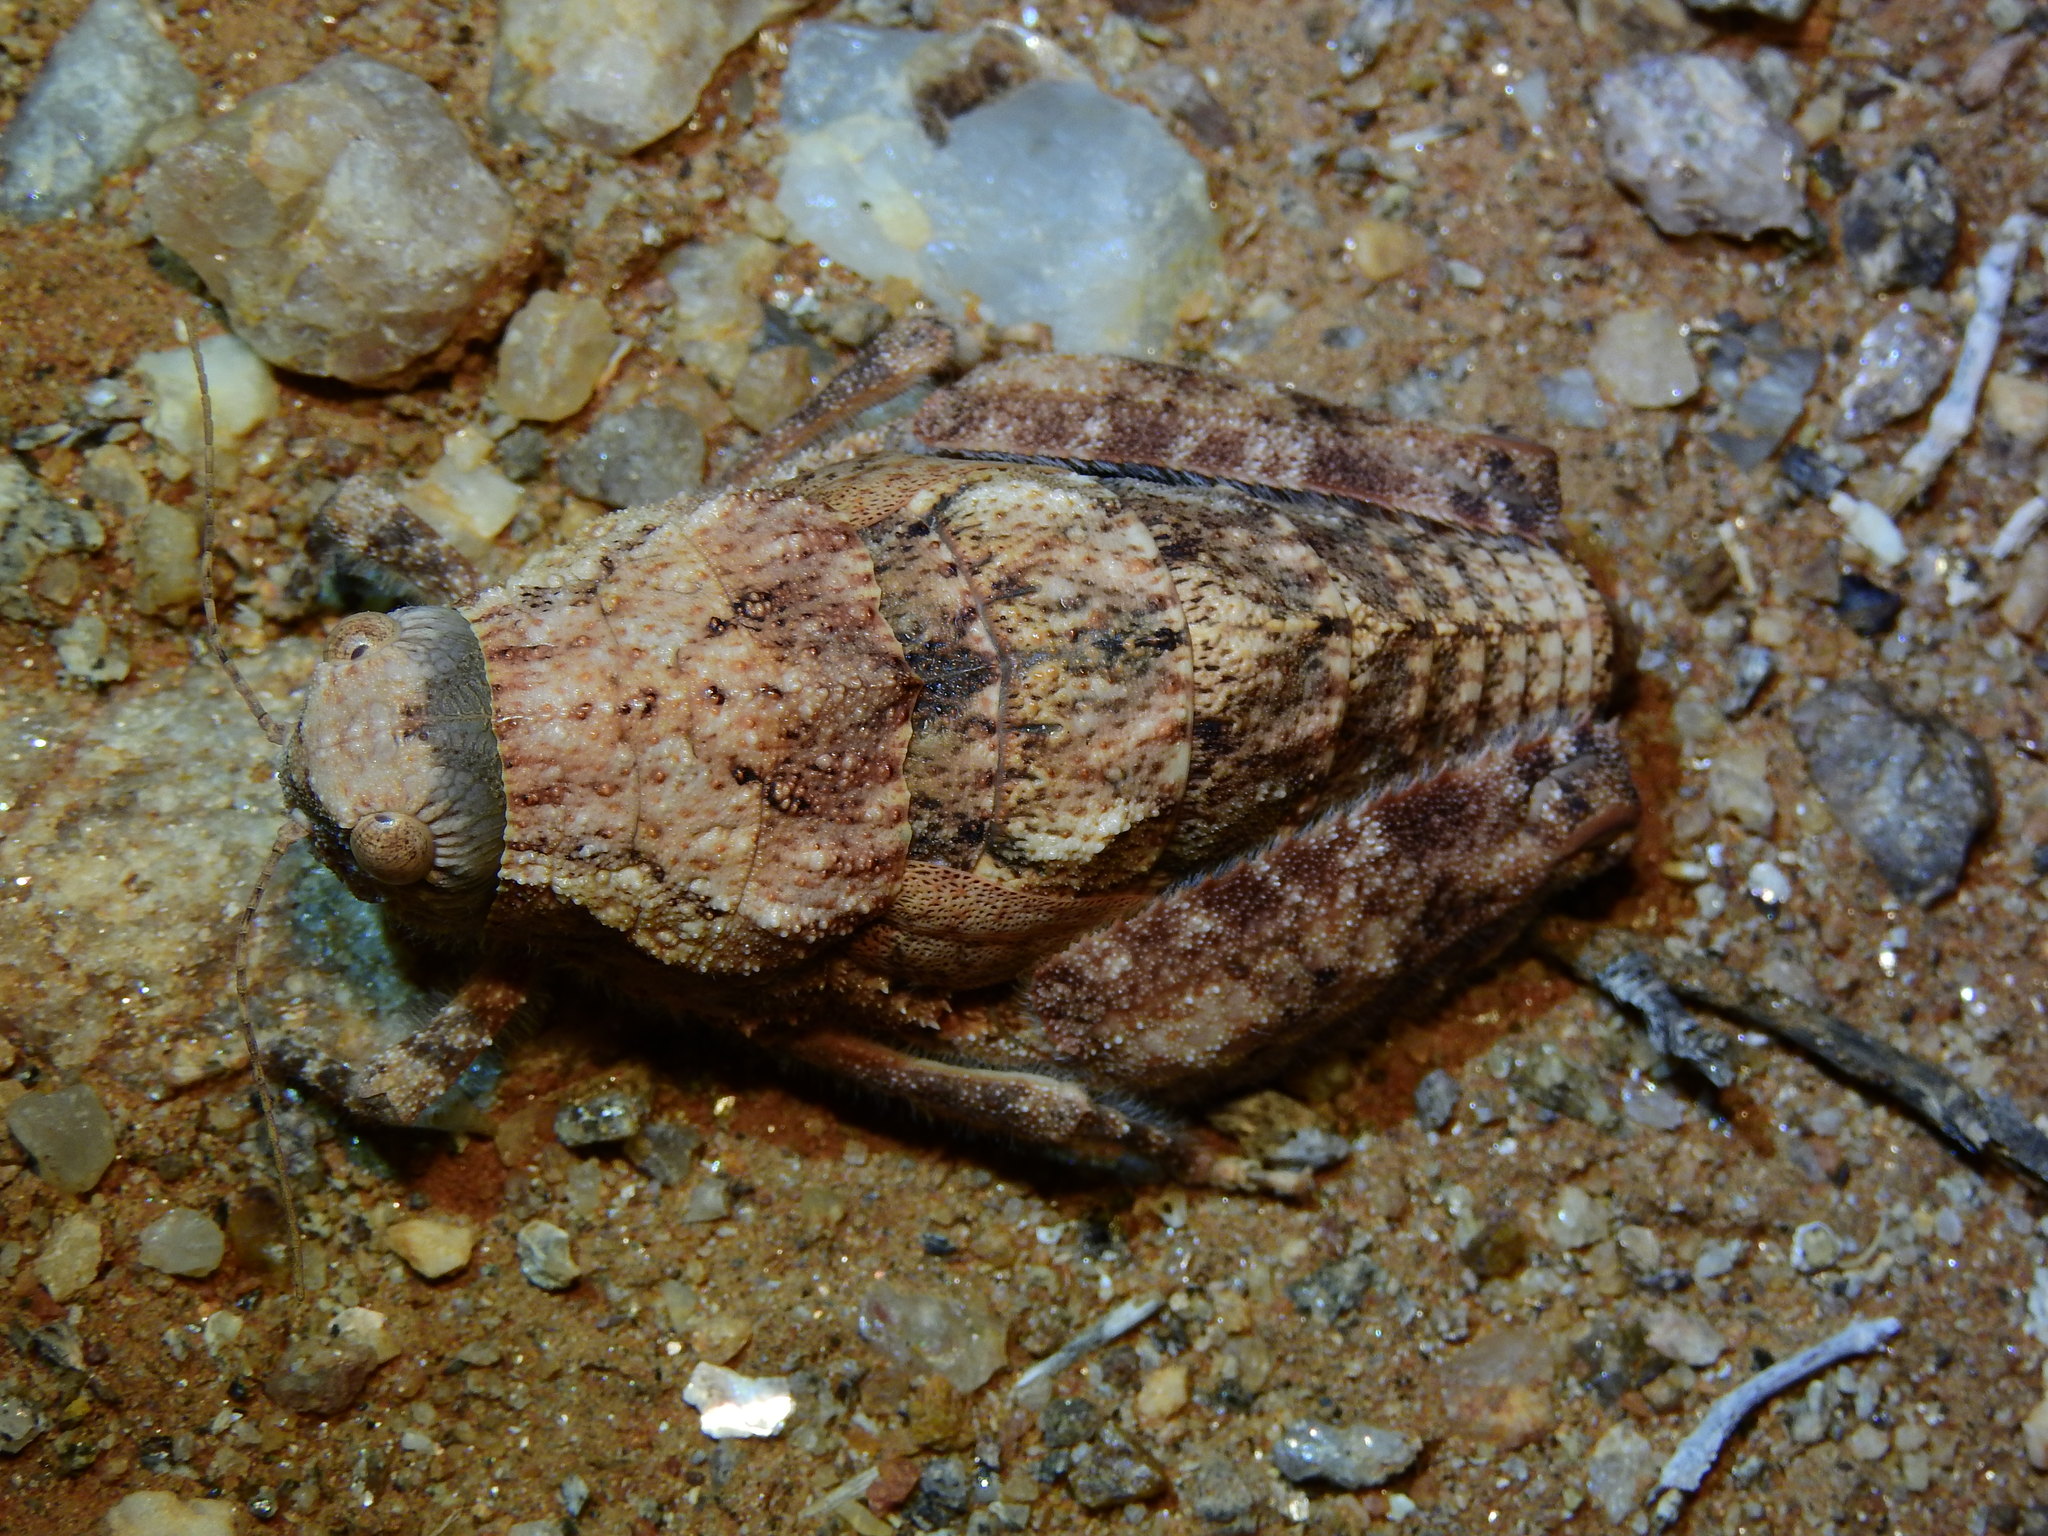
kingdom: Animalia
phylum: Arthropoda
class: Insecta
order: Orthoptera
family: Pamphagidae
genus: Trachypetrella
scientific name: Trachypetrella anderssonii
